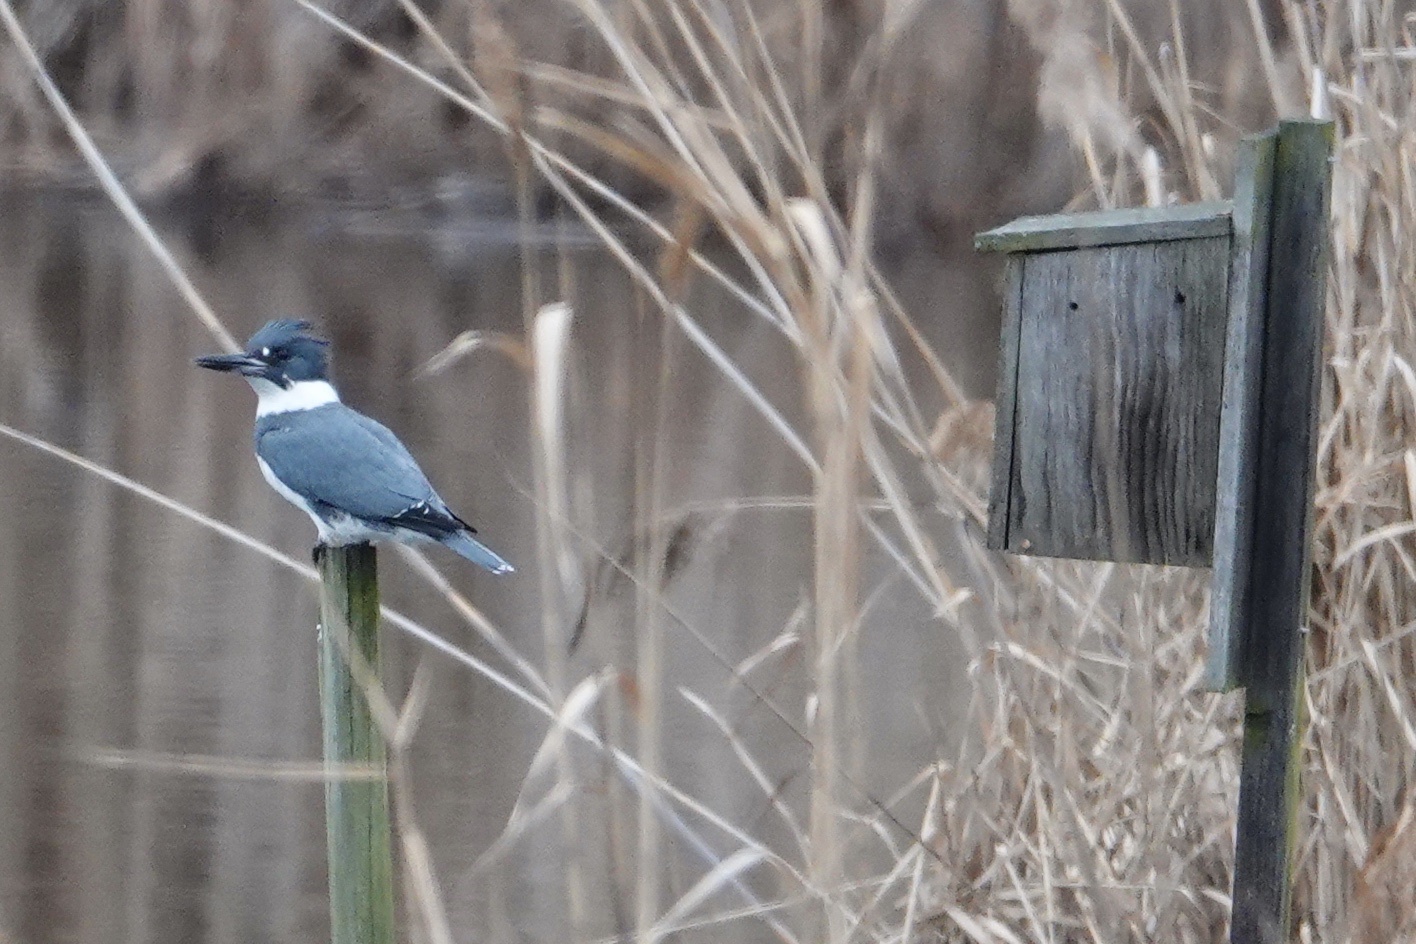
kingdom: Animalia
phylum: Chordata
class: Aves
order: Coraciiformes
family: Alcedinidae
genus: Megaceryle
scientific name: Megaceryle alcyon
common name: Belted kingfisher
